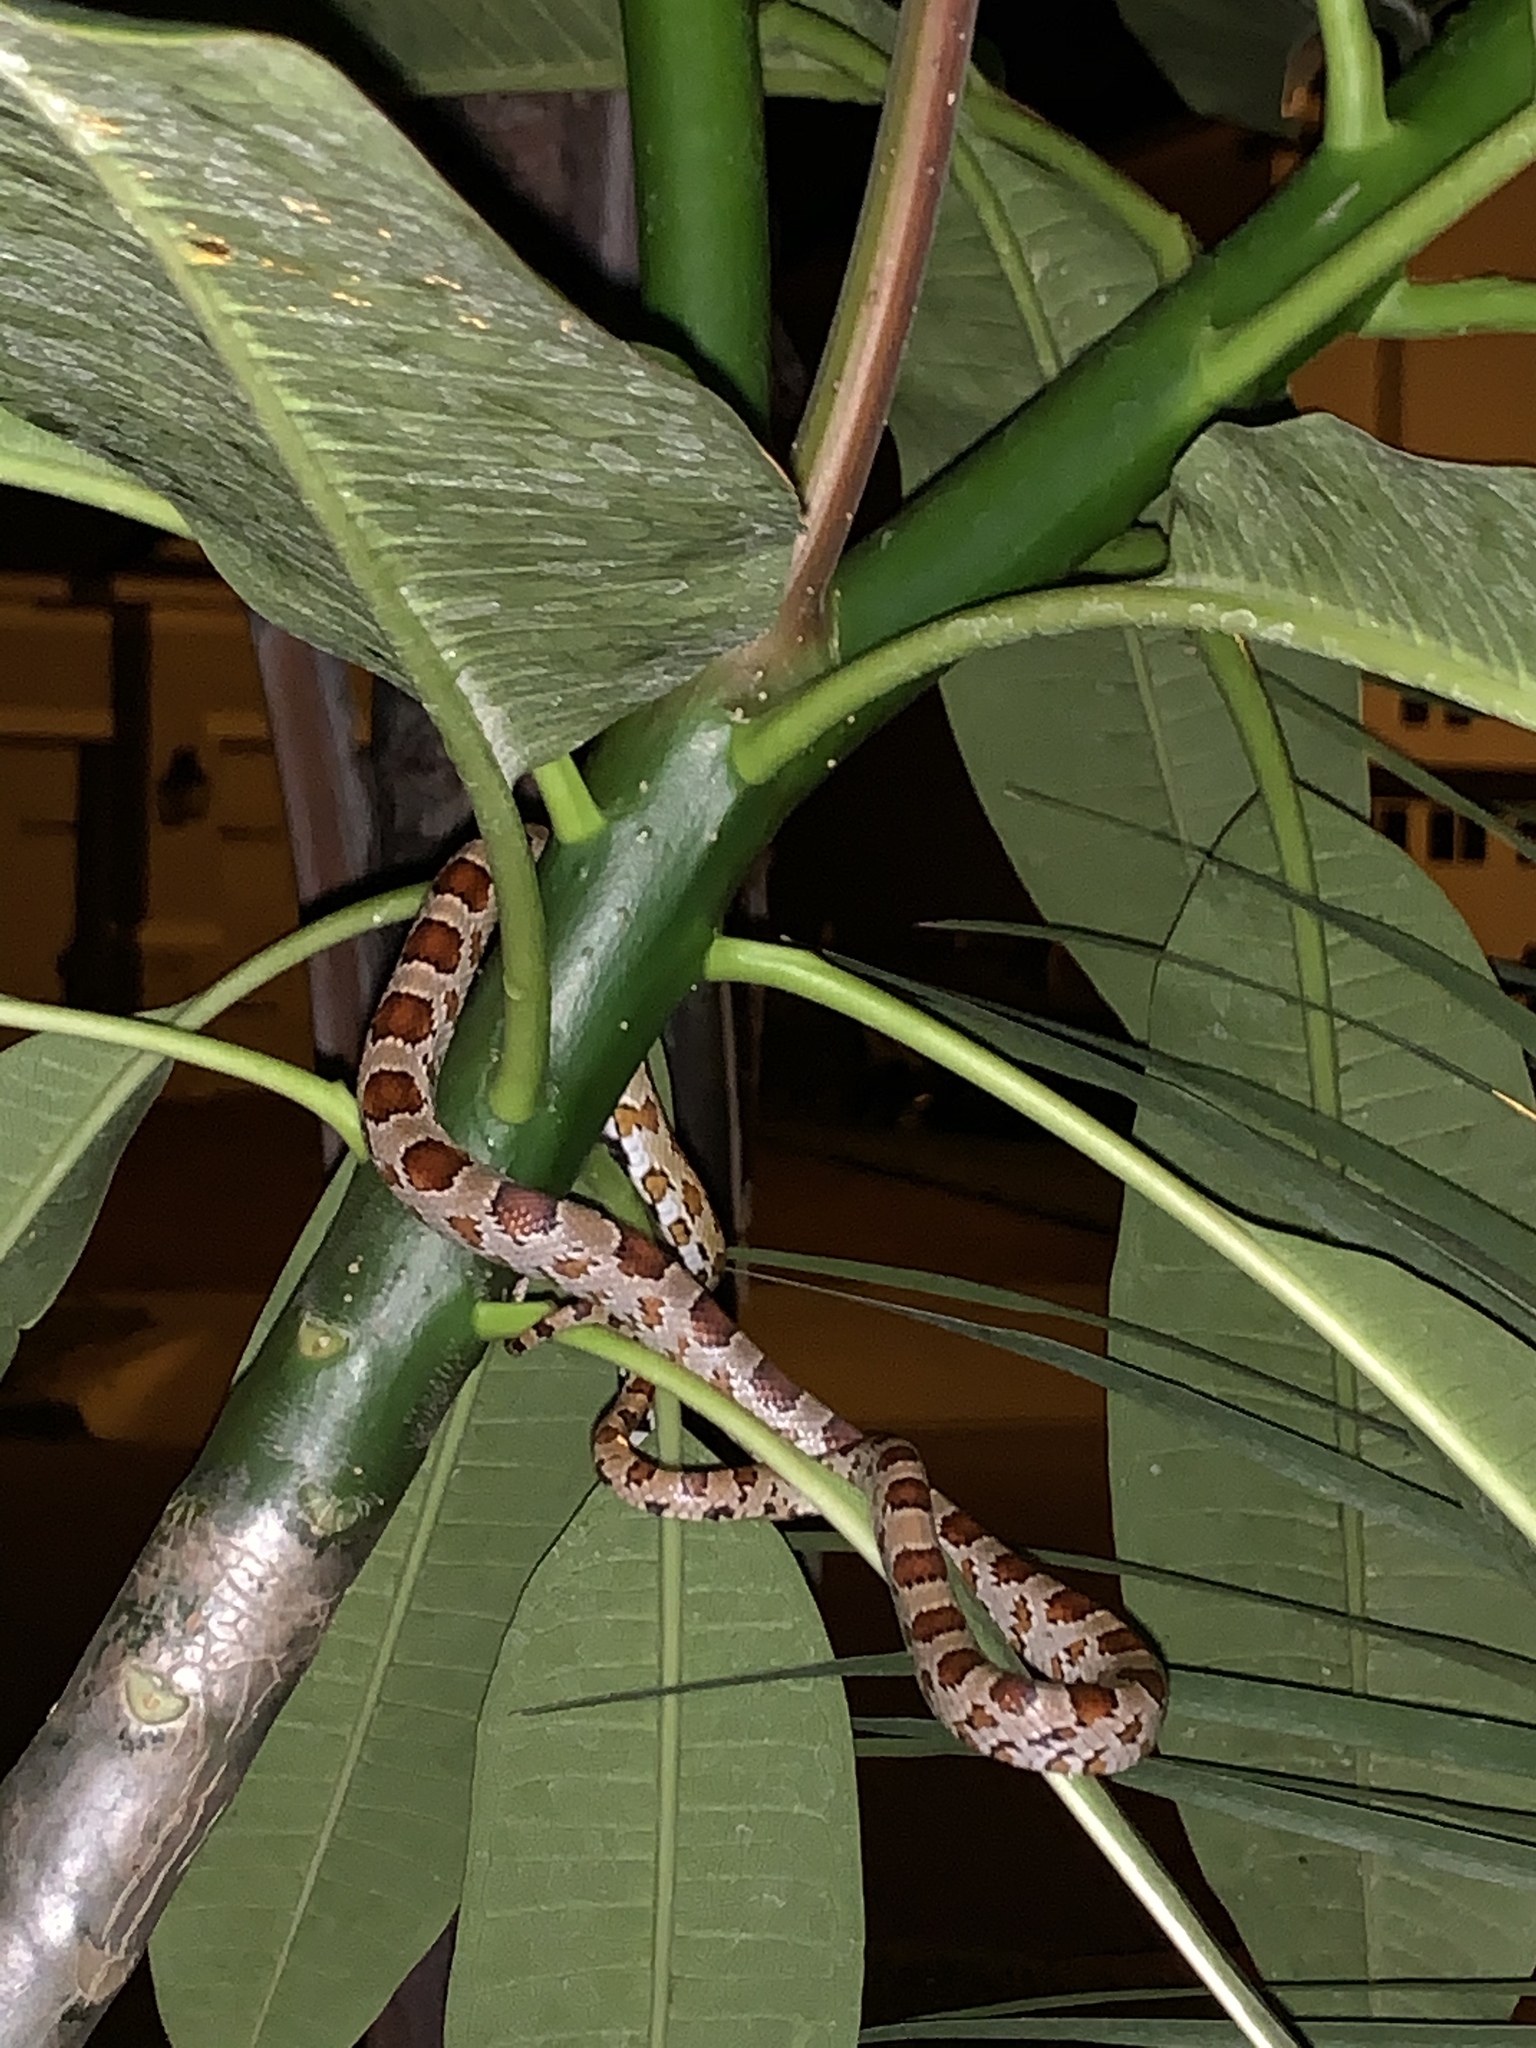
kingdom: Animalia
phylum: Chordata
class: Squamata
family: Colubridae
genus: Pantherophis
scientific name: Pantherophis guttatus
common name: Red cornsnake
